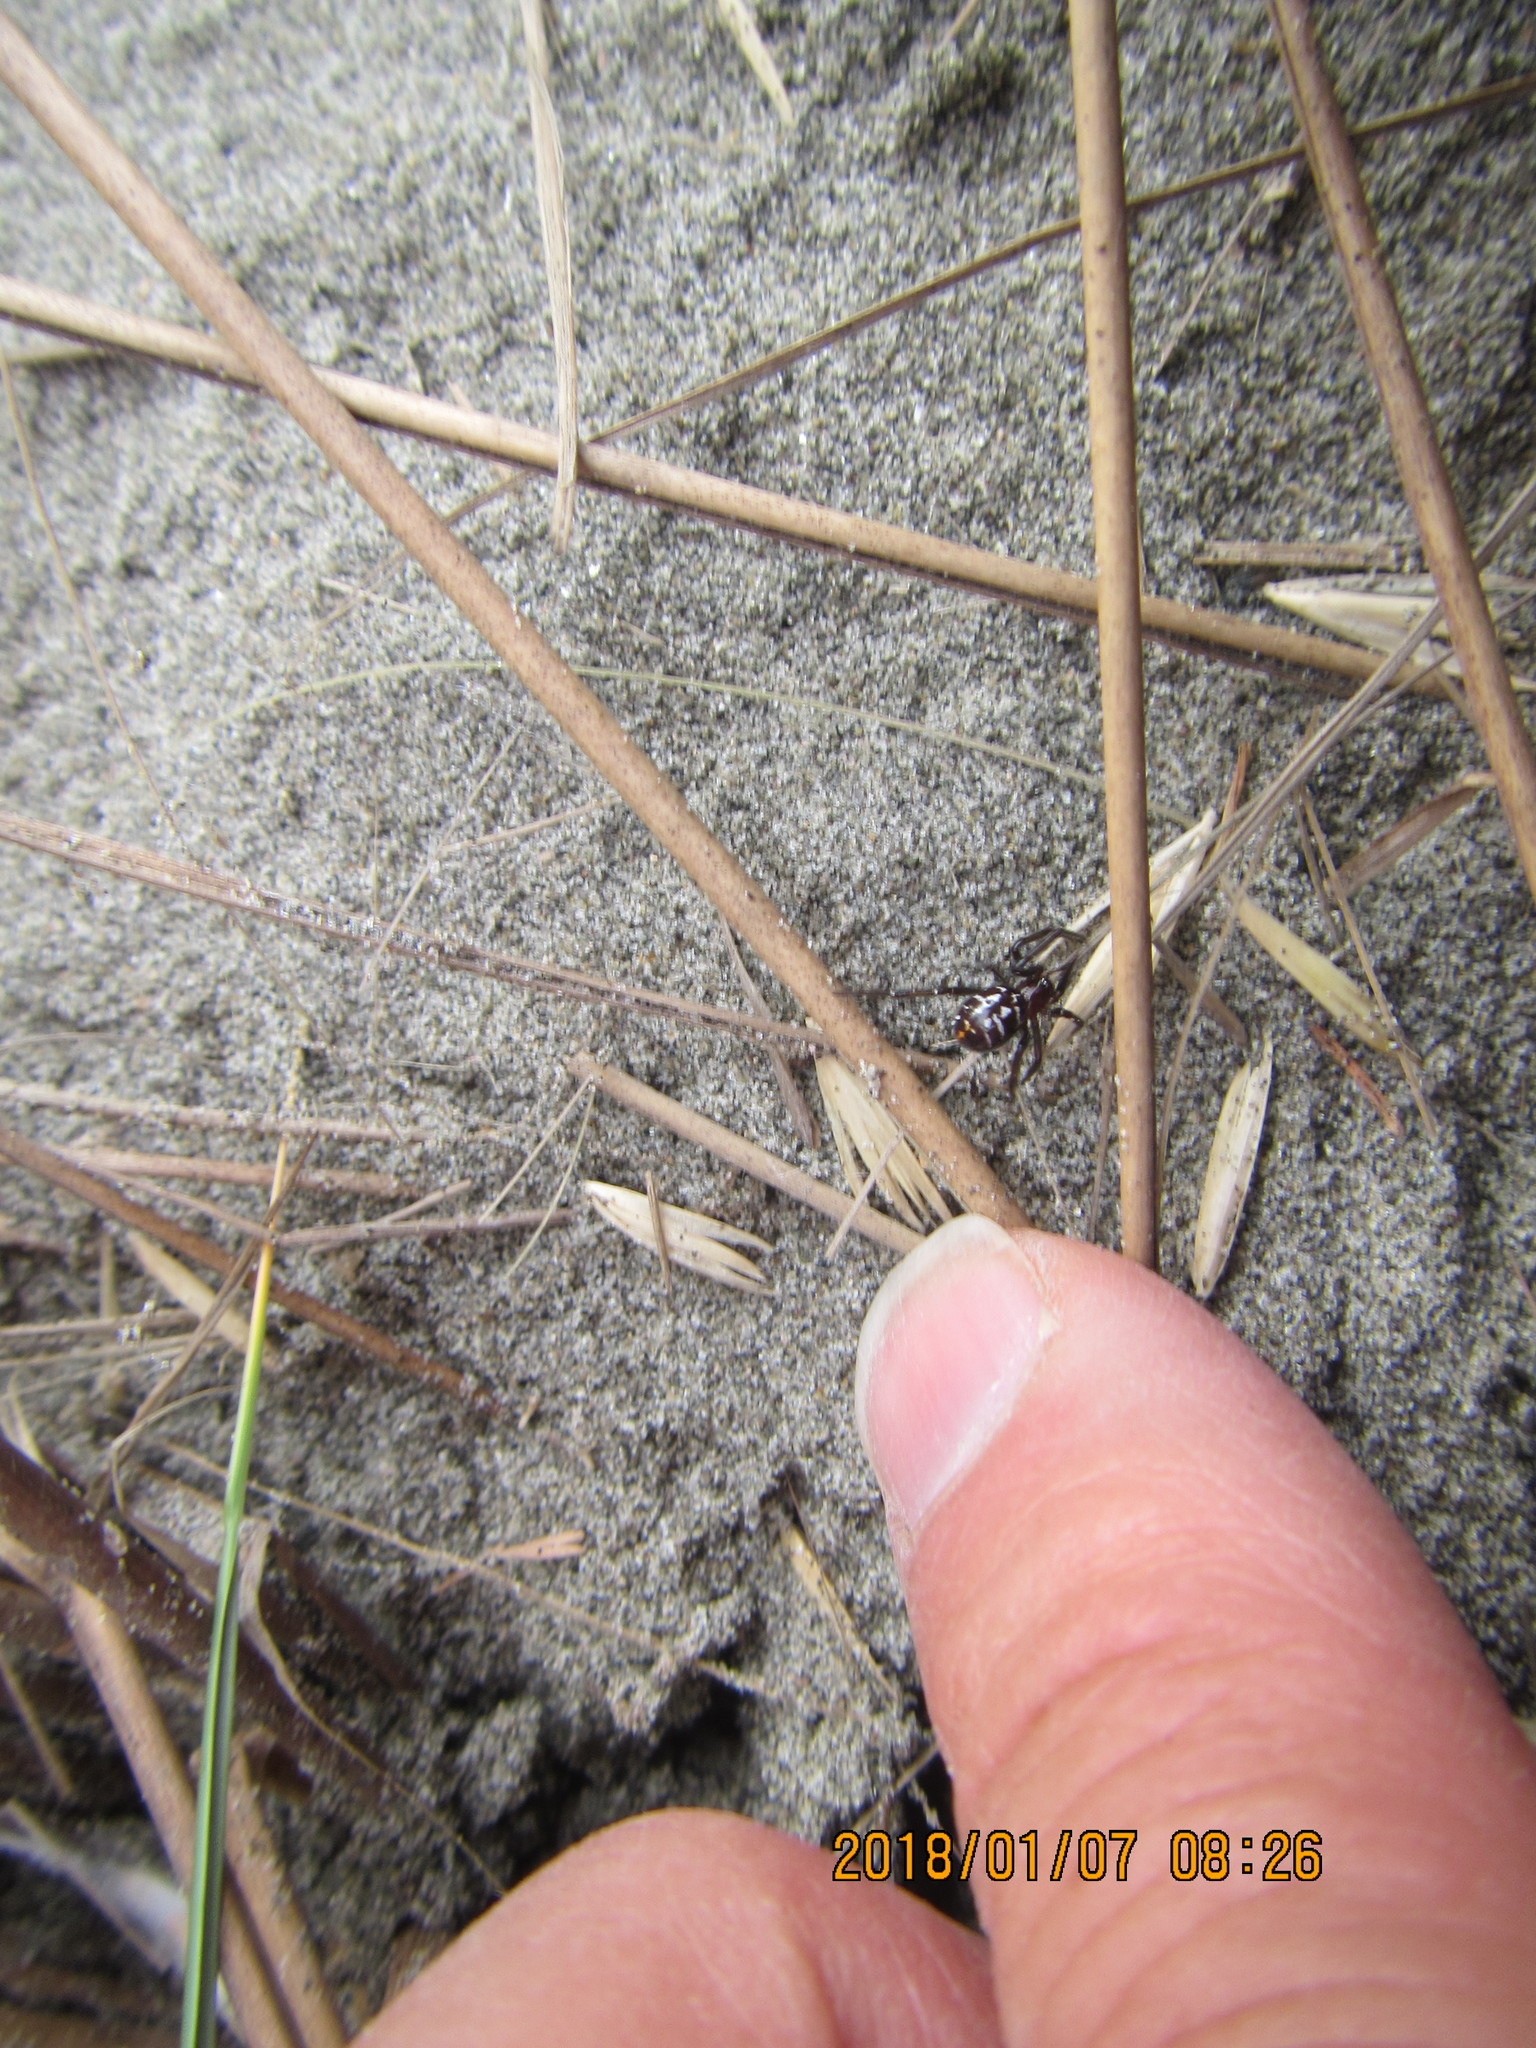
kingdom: Animalia
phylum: Arthropoda
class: Arachnida
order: Araneae
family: Theridiidae
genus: Steatoda
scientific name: Steatoda capensis
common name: Cobweb weaver
